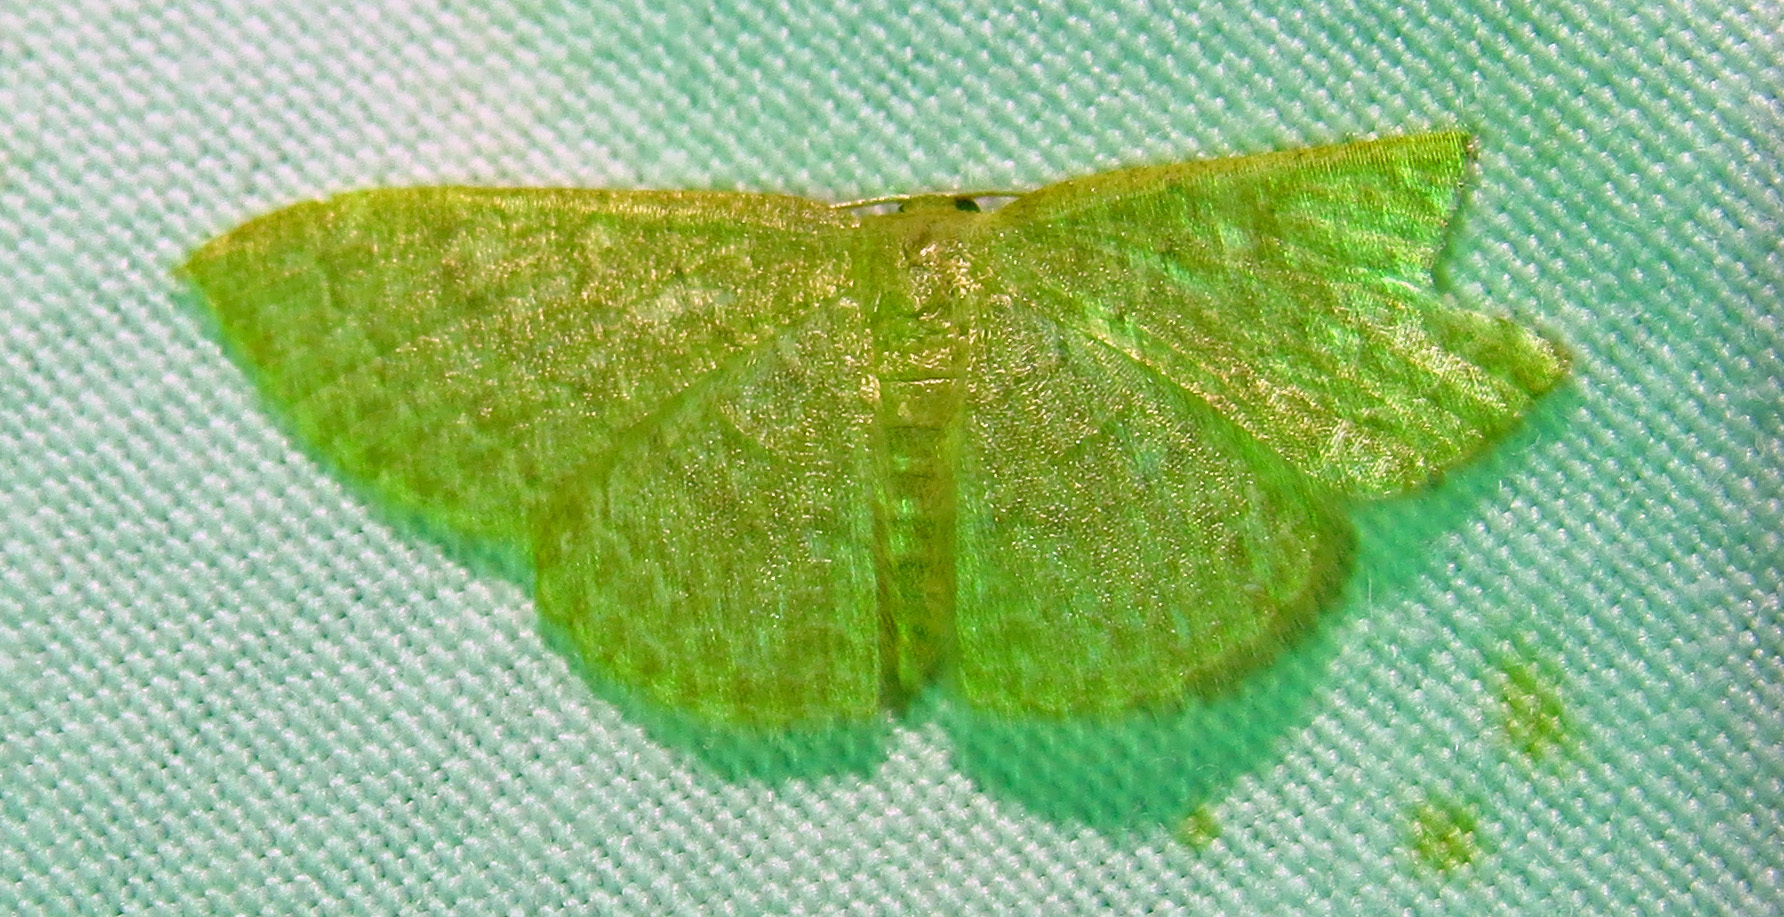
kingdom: Animalia
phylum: Arthropoda
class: Insecta
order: Lepidoptera
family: Geometridae
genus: Pleuroprucha
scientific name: Pleuroprucha insulsaria
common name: Common tan wave
